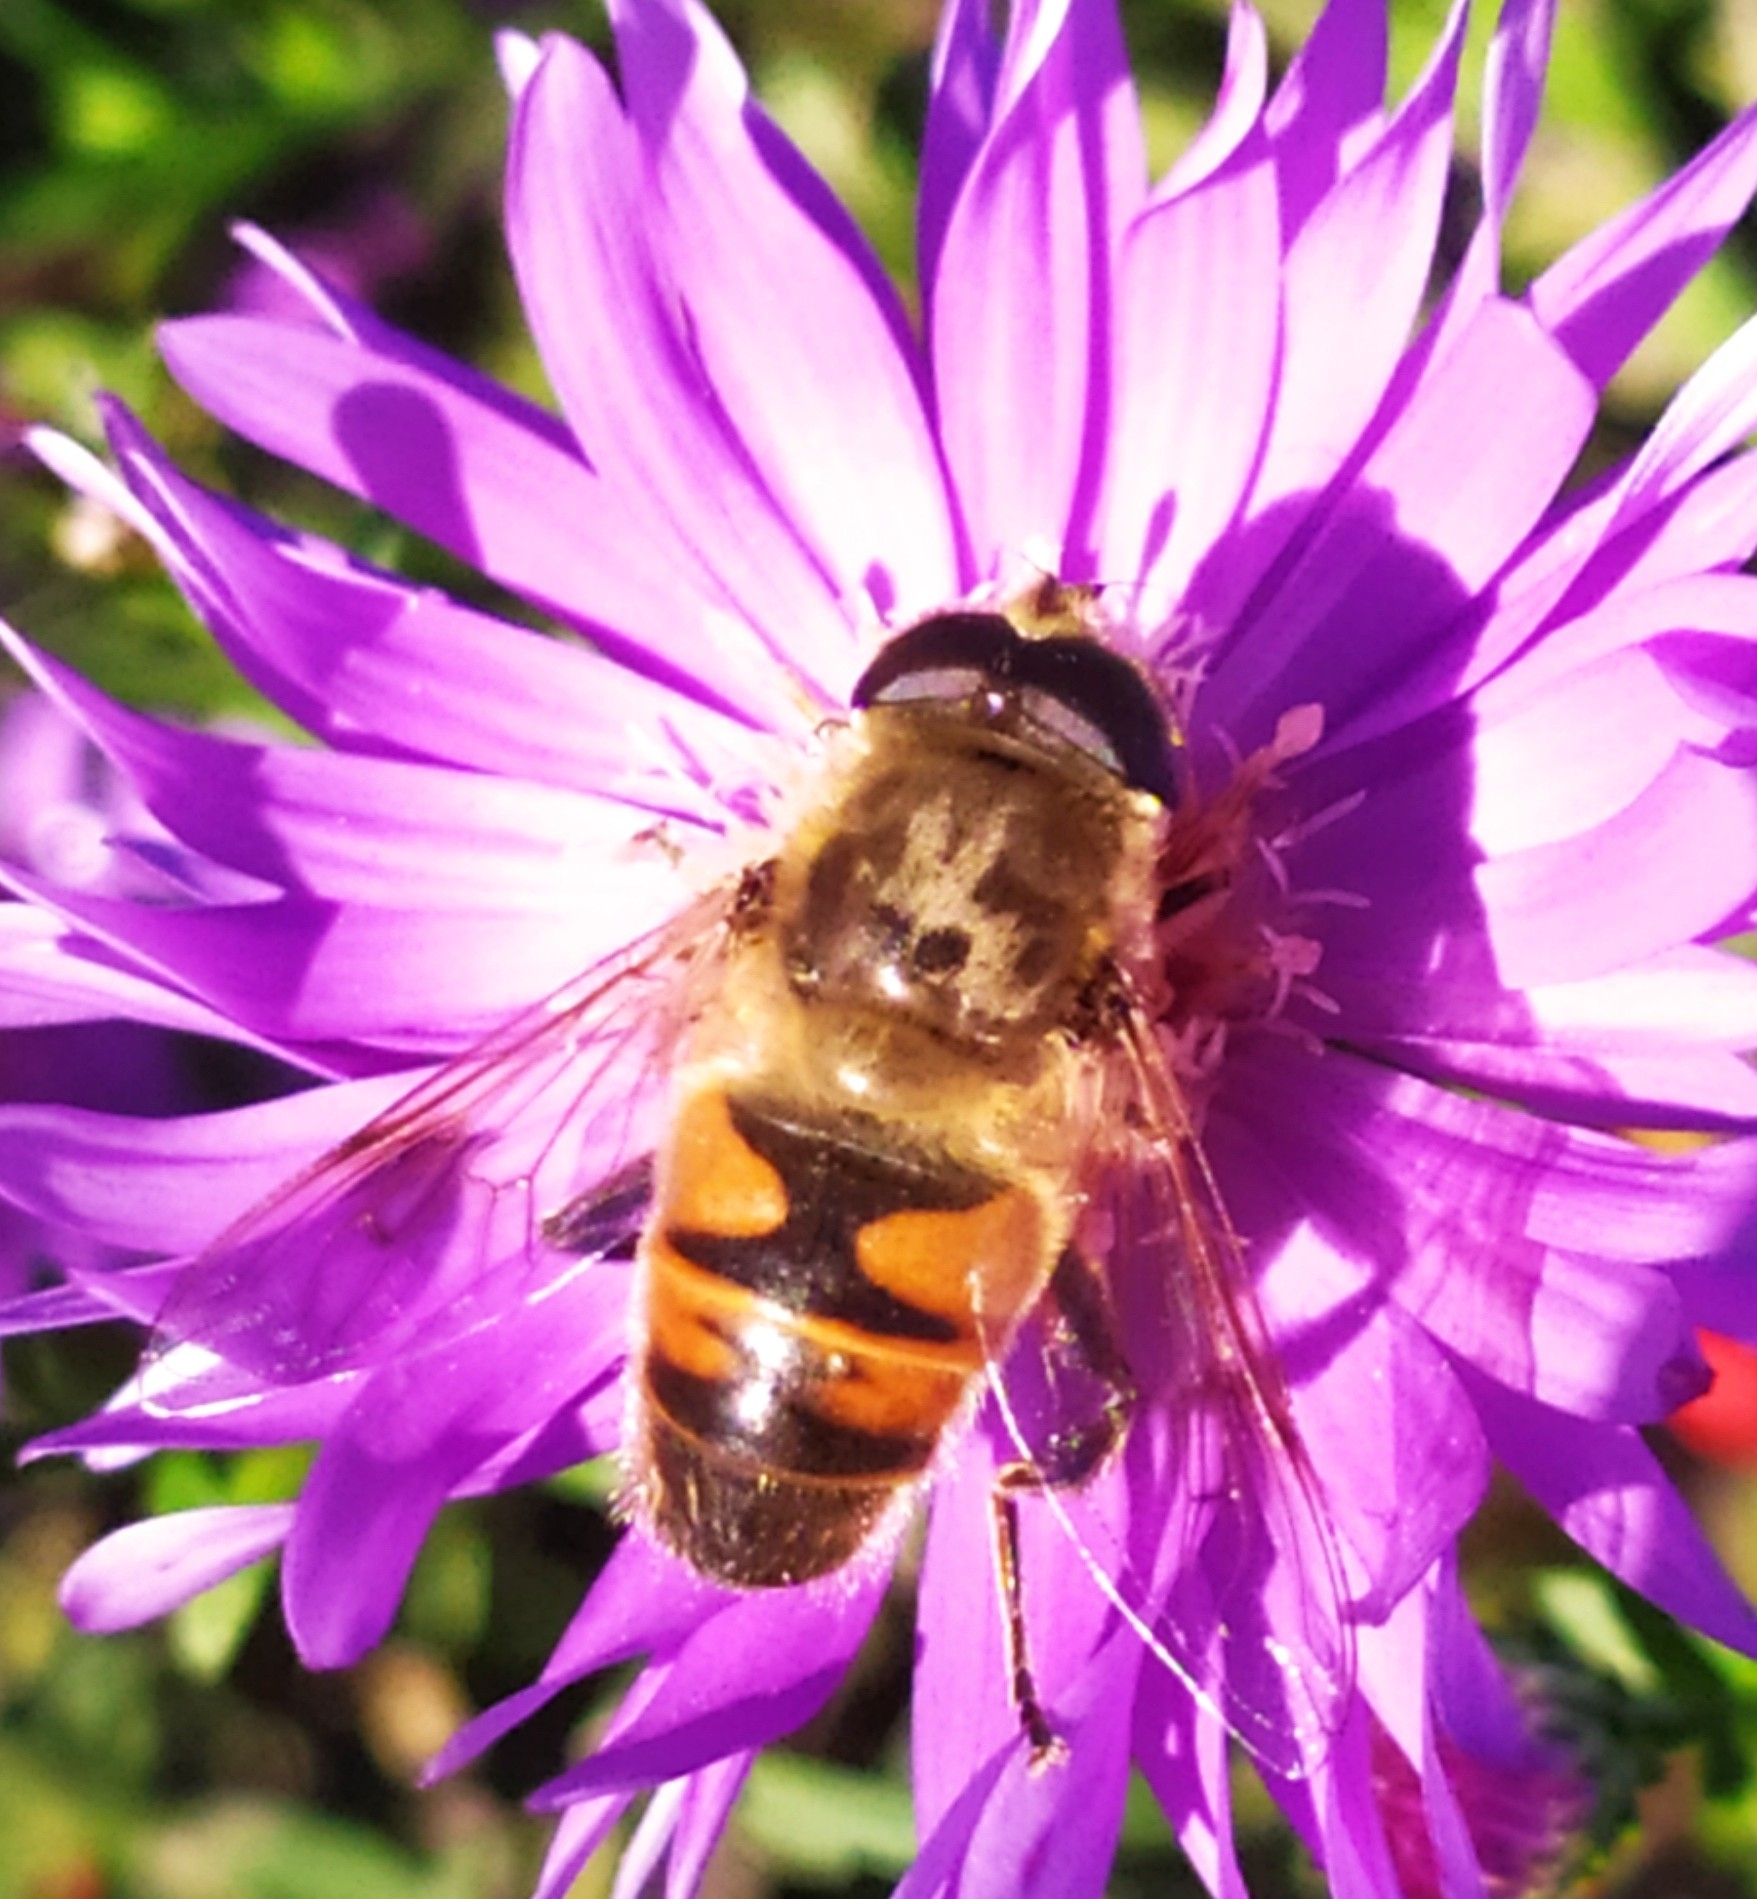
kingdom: Animalia
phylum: Arthropoda
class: Insecta
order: Diptera
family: Syrphidae
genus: Eristalis
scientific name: Eristalis tenax
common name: Drone fly
